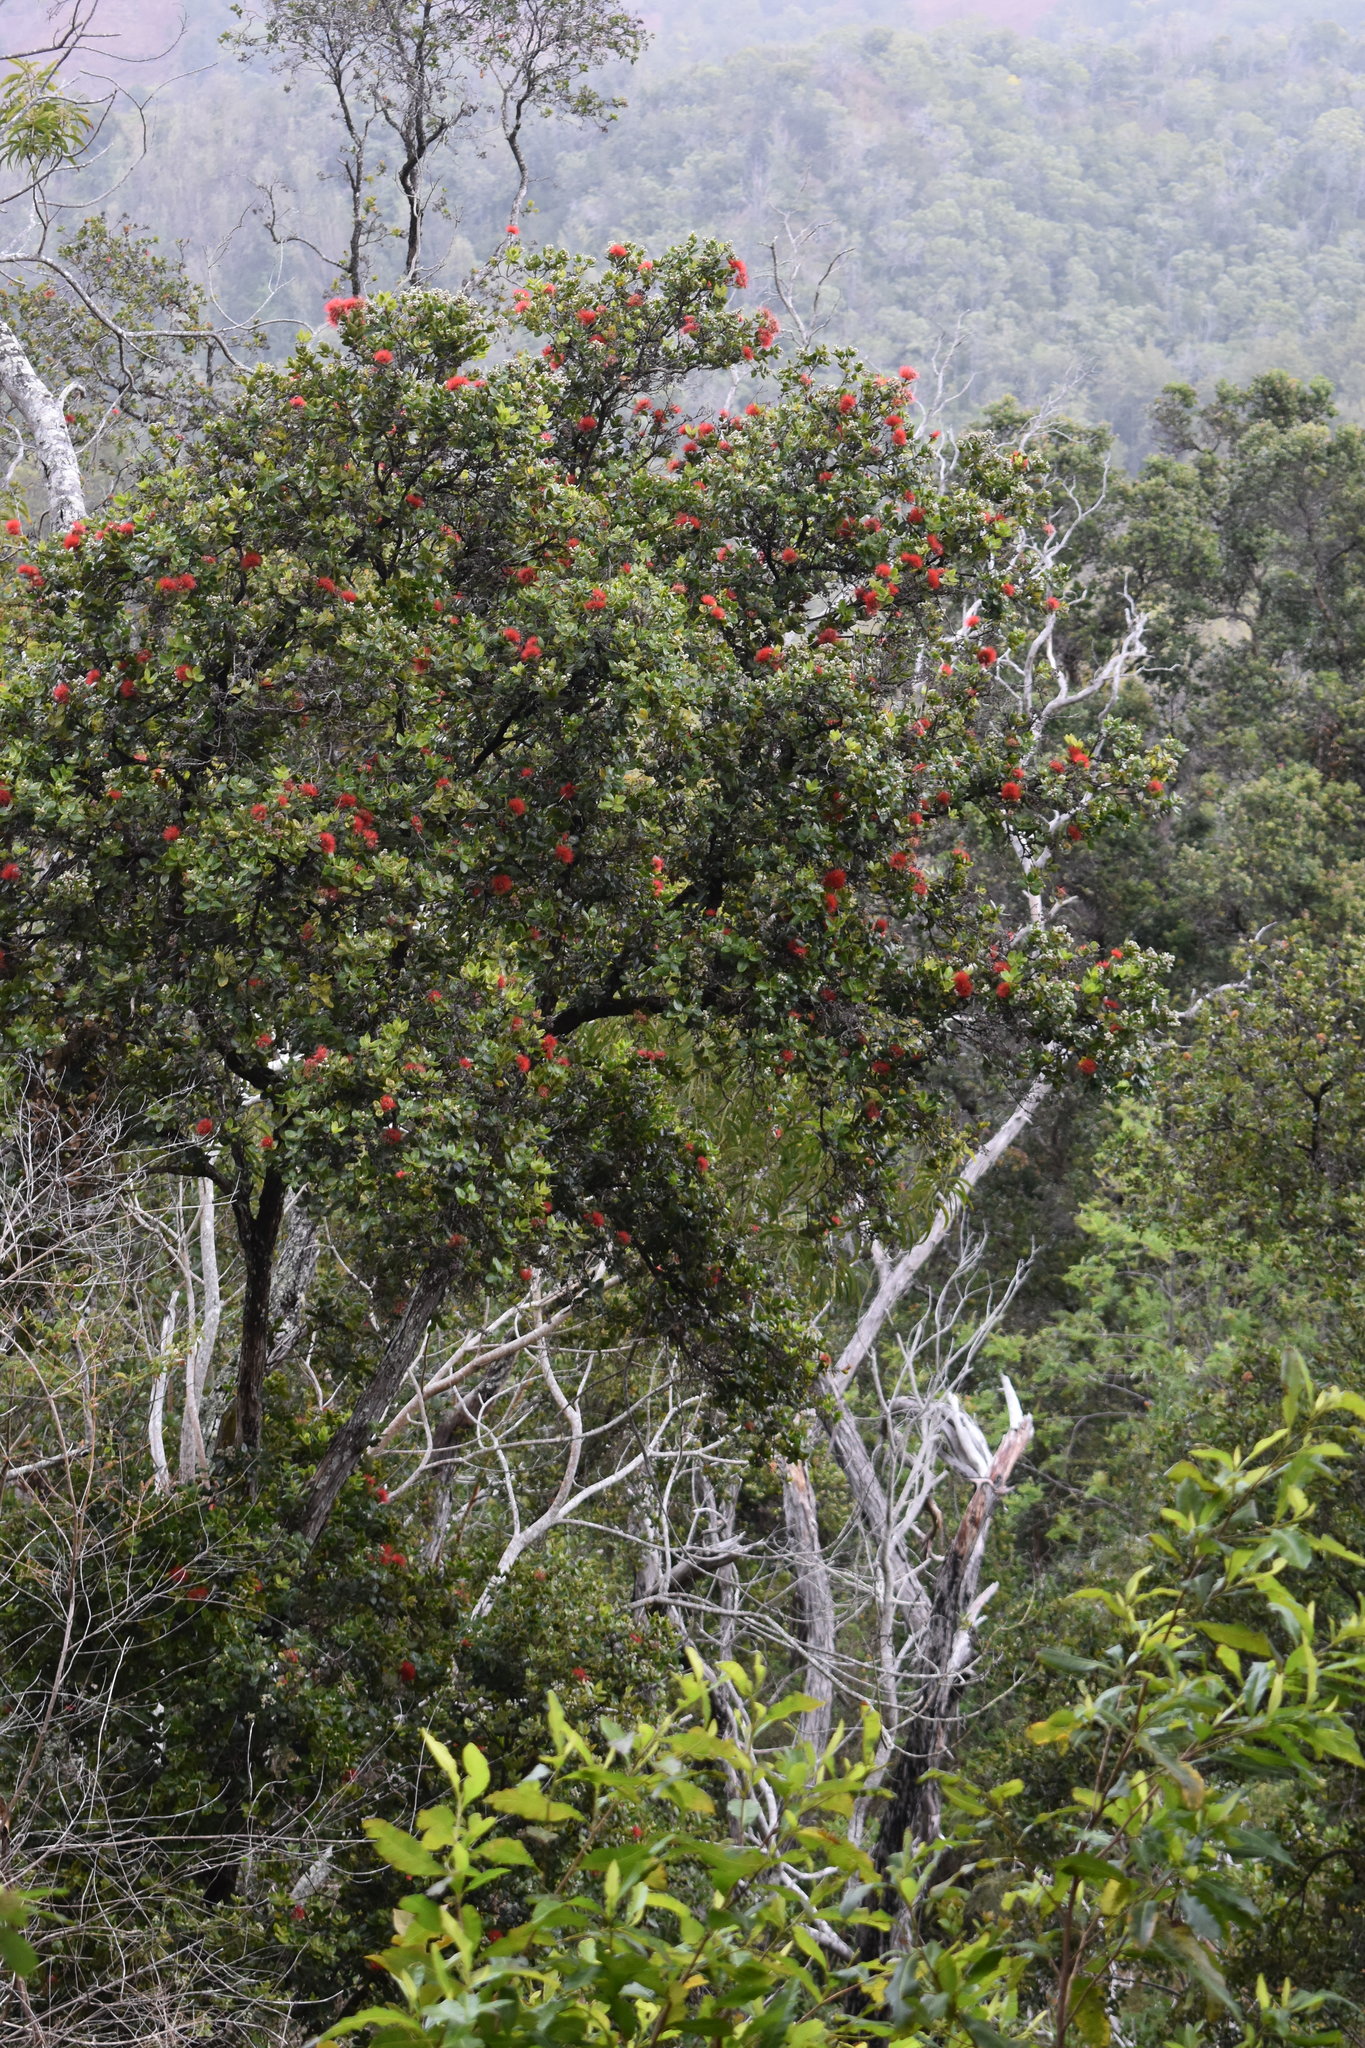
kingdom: Plantae
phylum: Tracheophyta
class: Magnoliopsida
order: Myrtales
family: Myrtaceae
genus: Metrosideros
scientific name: Metrosideros polymorpha
